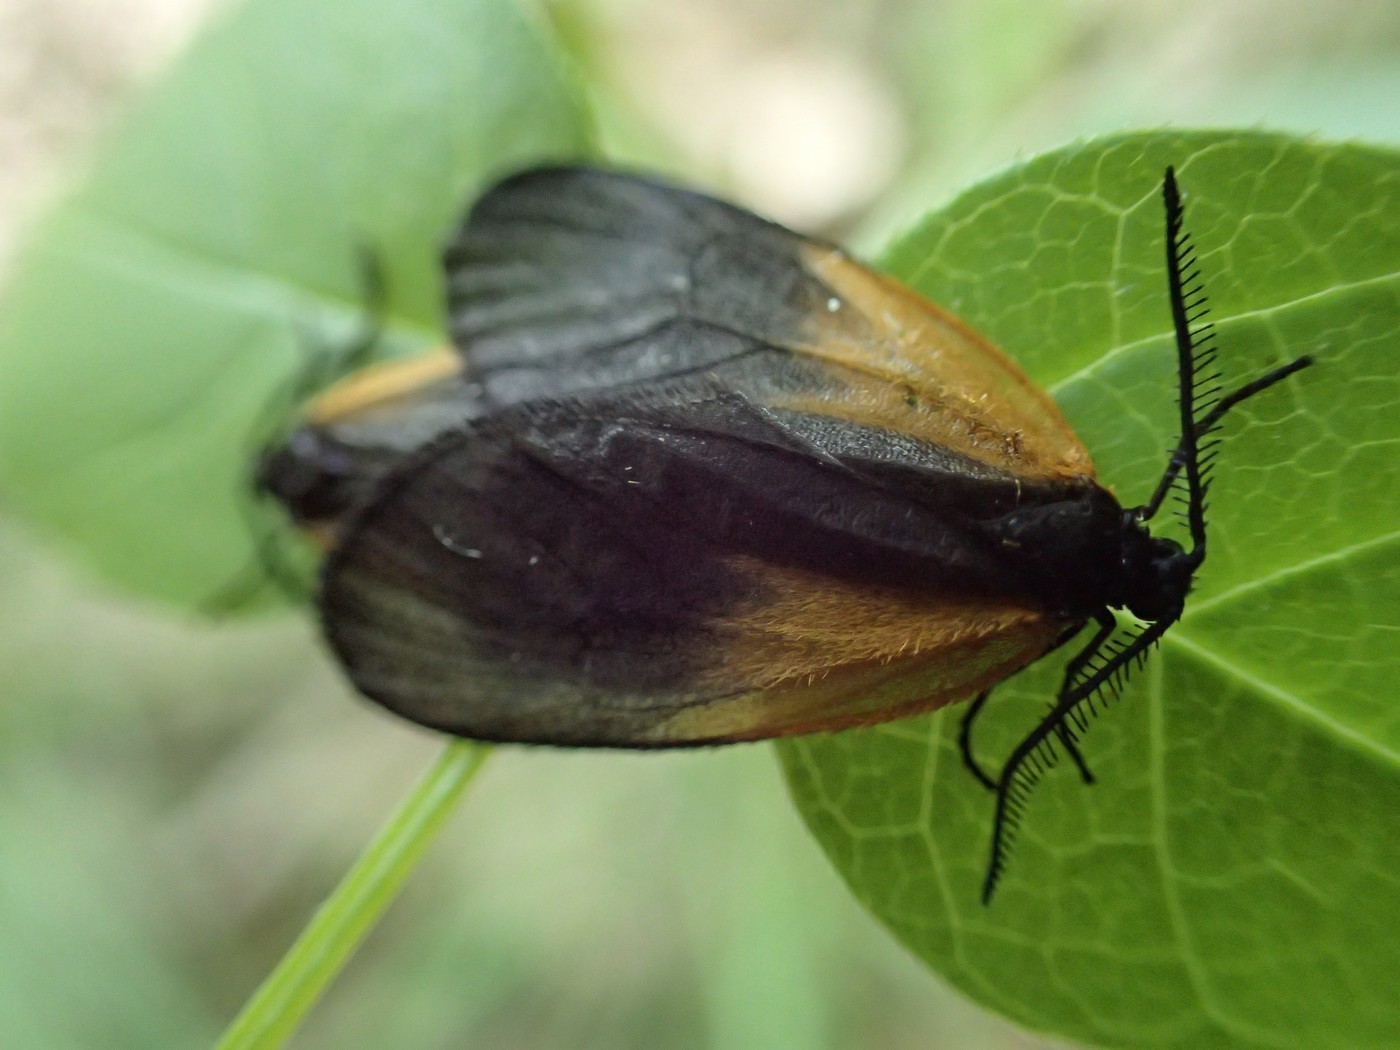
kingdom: Animalia
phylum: Arthropoda
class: Insecta
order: Lepidoptera
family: Zygaenidae
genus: Malthaca
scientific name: Malthaca dimidiata
